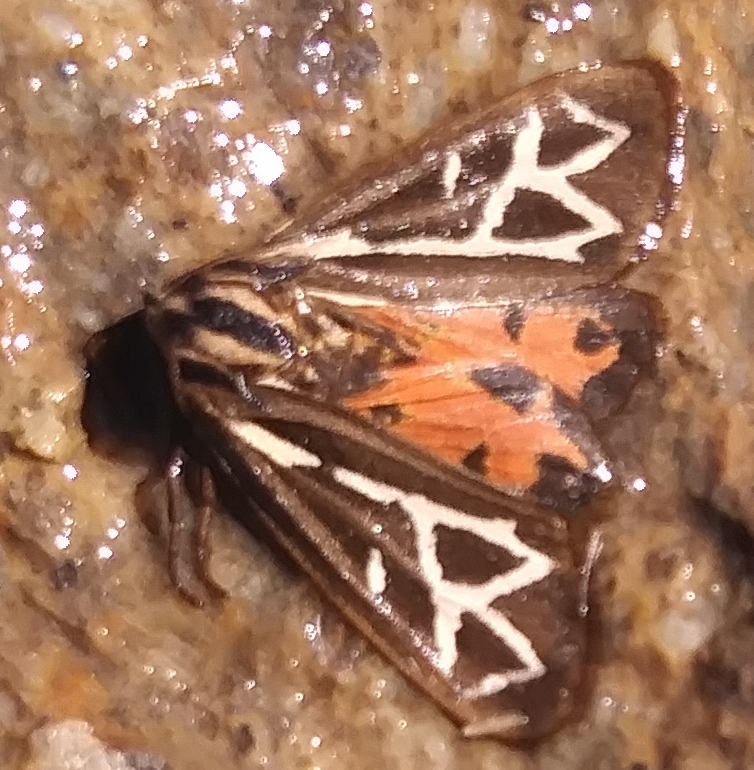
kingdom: Animalia
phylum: Arthropoda
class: Insecta
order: Lepidoptera
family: Erebidae
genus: Apantesis
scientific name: Apantesis
